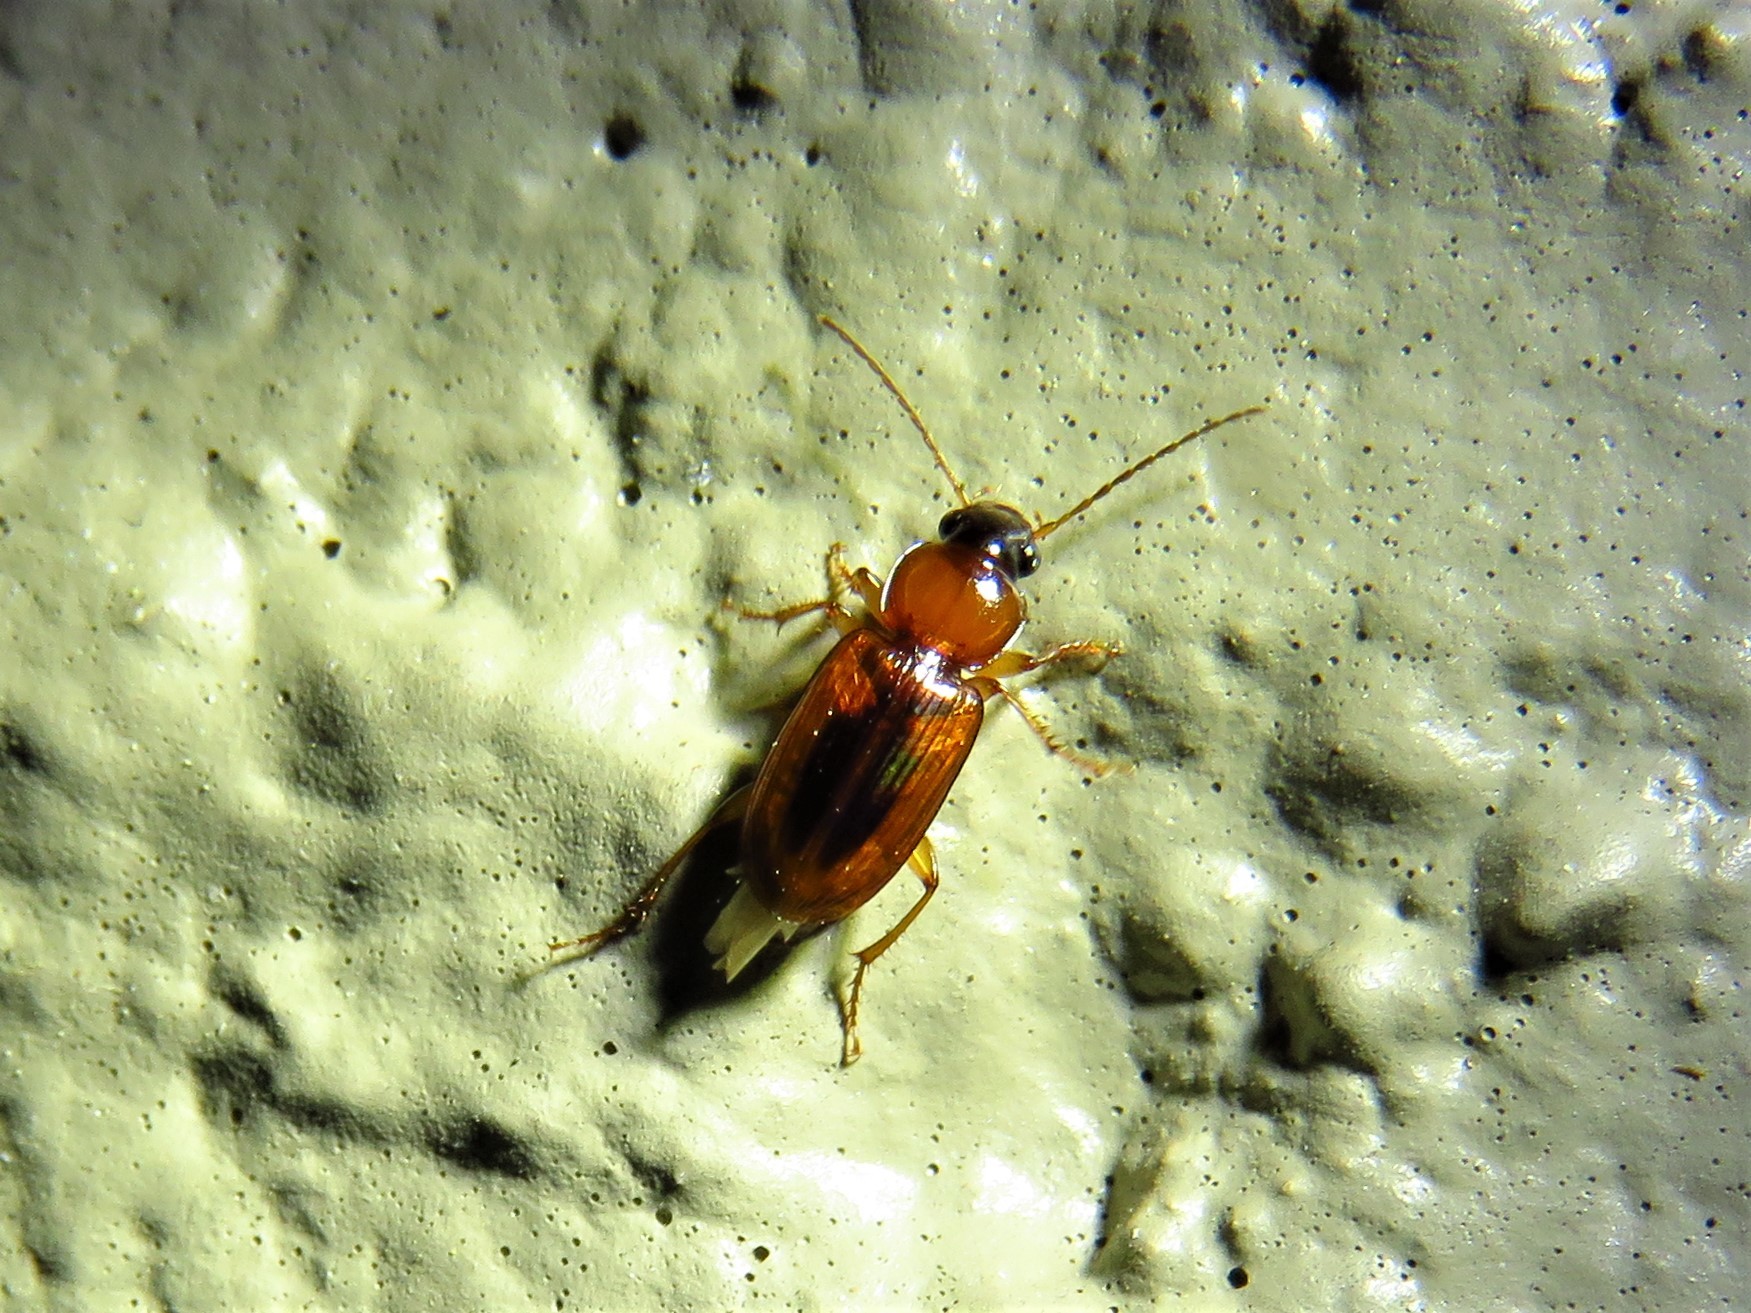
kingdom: Animalia
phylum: Arthropoda
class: Insecta
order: Coleoptera
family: Carabidae
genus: Stenolophus
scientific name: Stenolophus dissimilis
